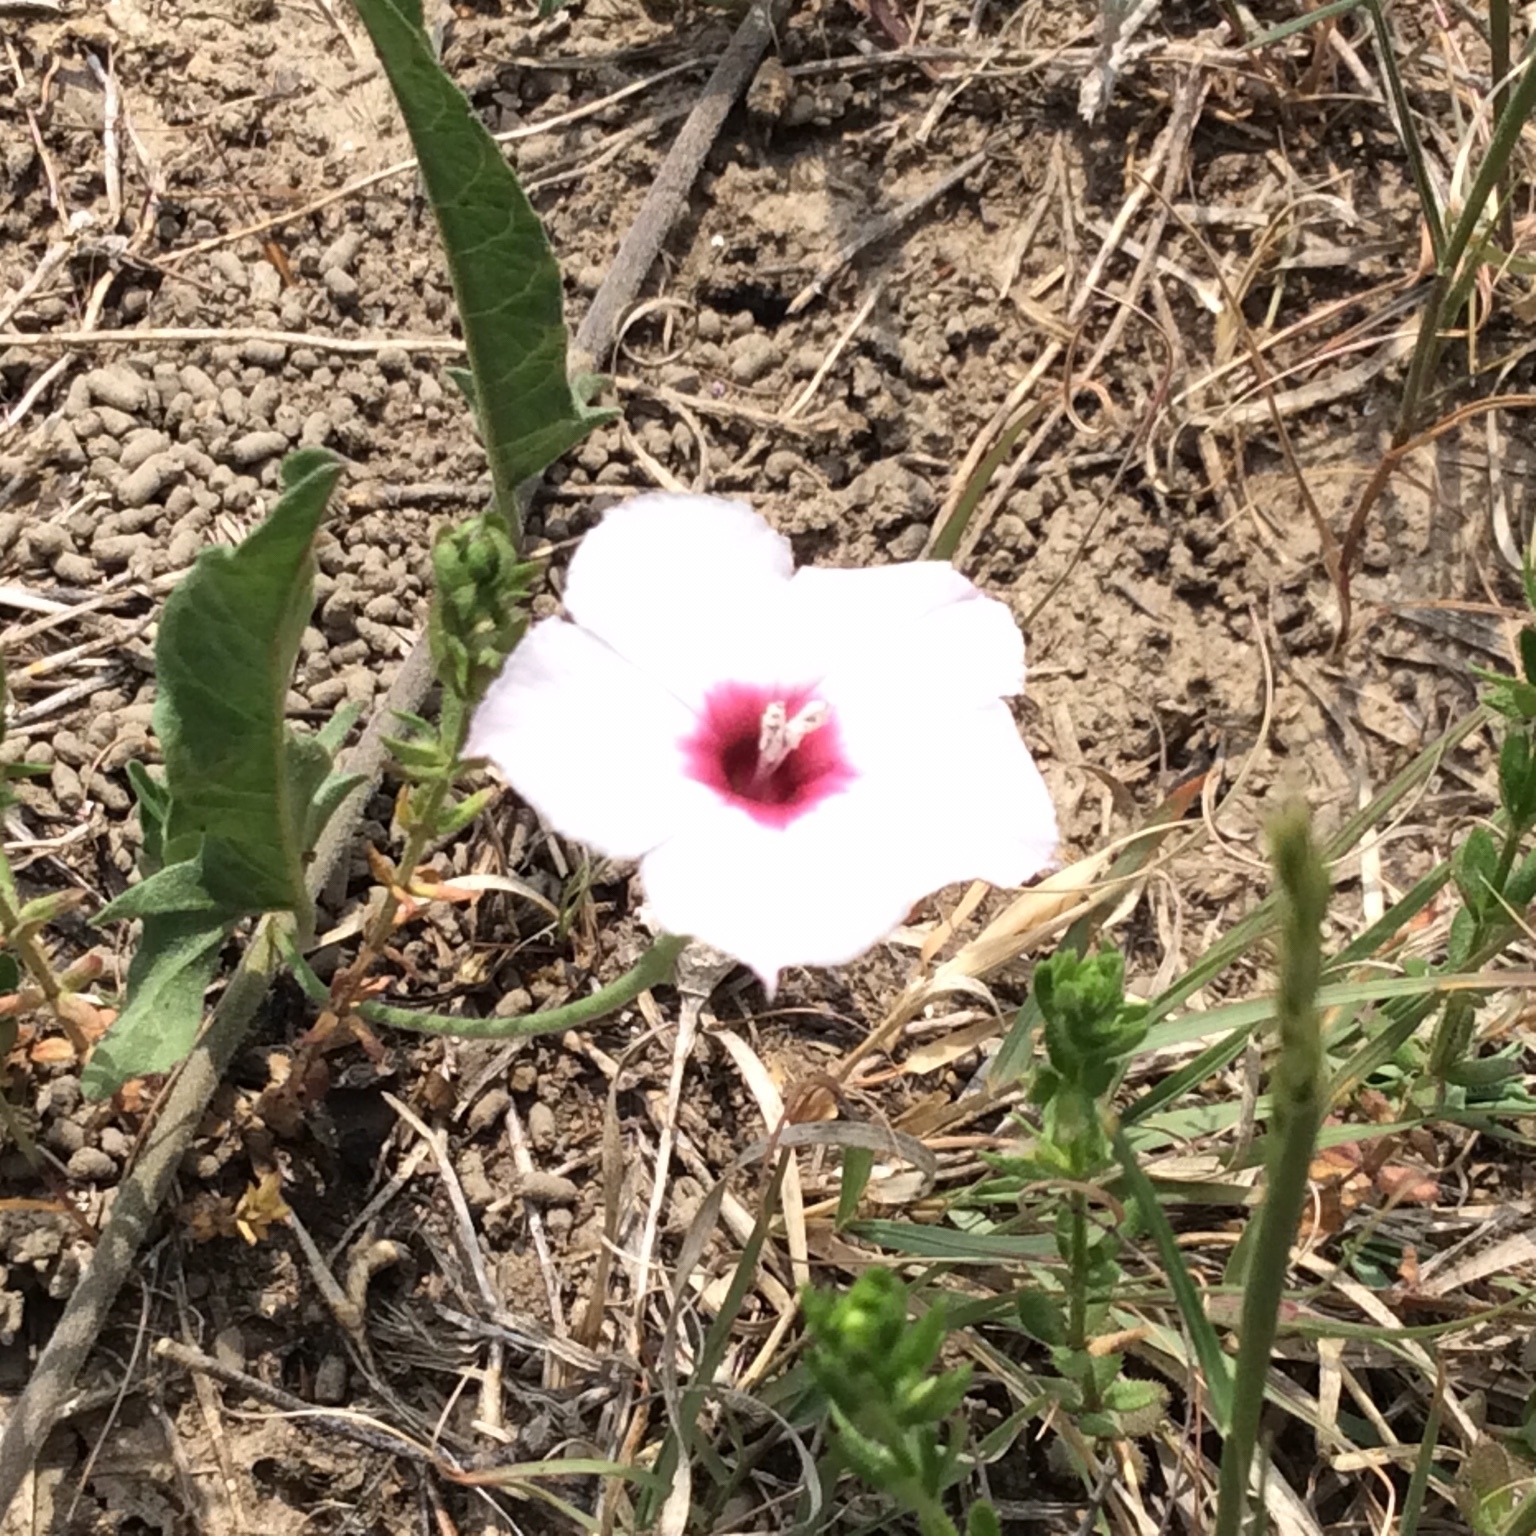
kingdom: Plantae
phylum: Tracheophyta
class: Magnoliopsida
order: Solanales
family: Convolvulaceae
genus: Convolvulus
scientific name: Convolvulus equitans
